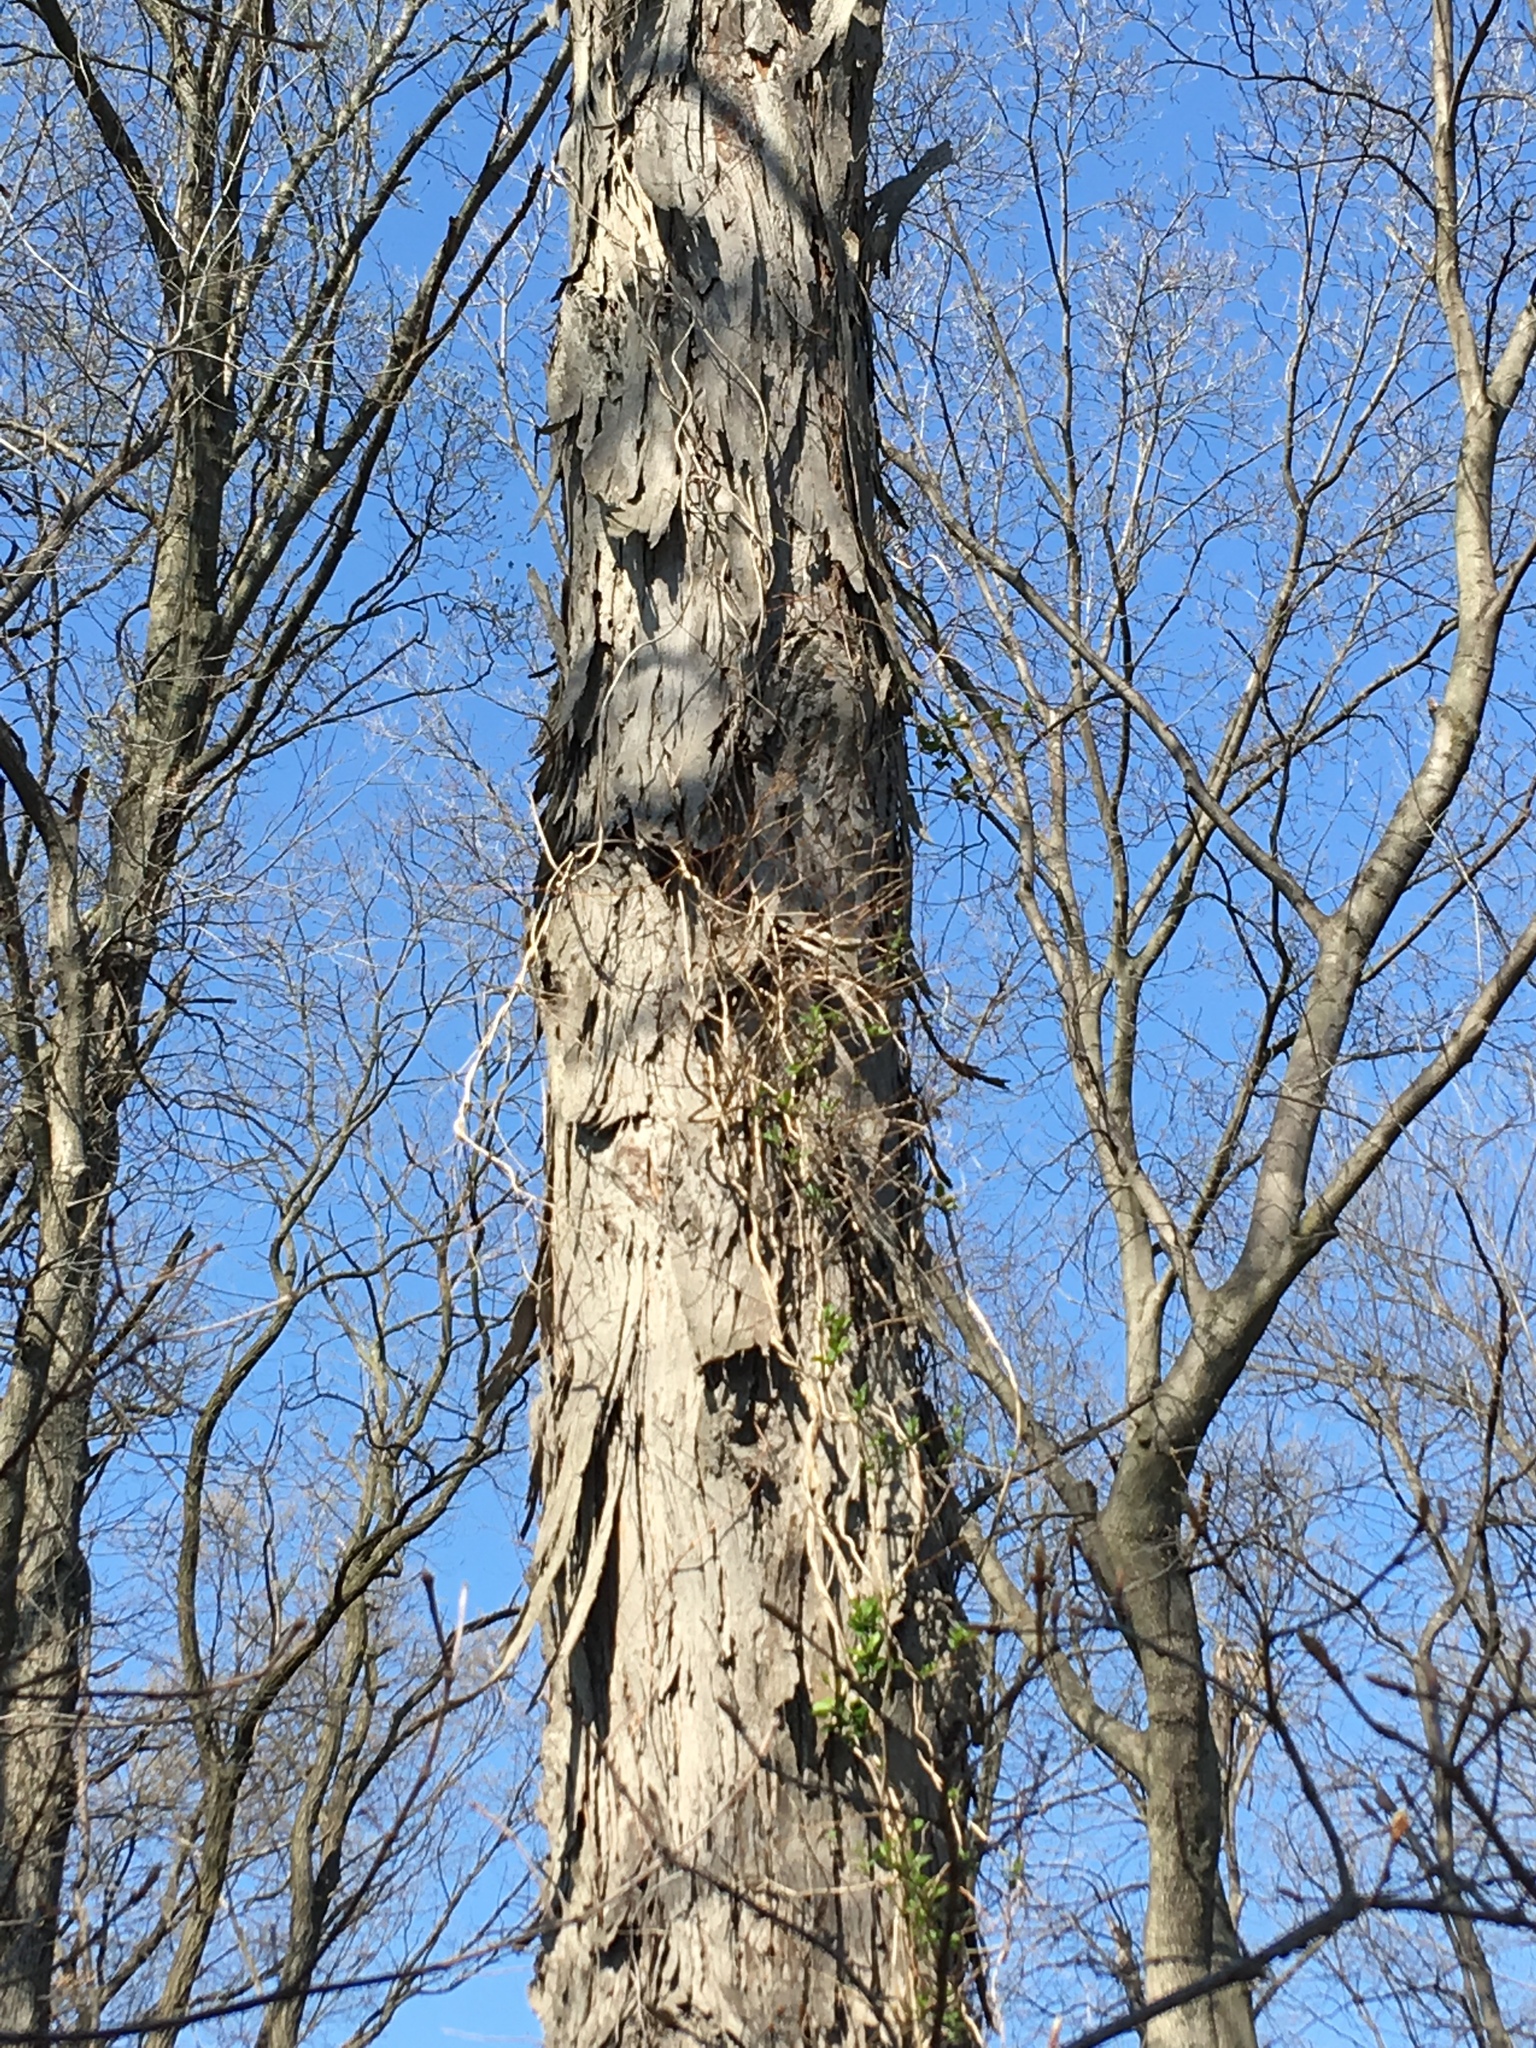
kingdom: Plantae
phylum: Tracheophyta
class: Magnoliopsida
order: Fagales
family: Juglandaceae
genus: Carya
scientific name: Carya ovata
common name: Shagbark hickory
